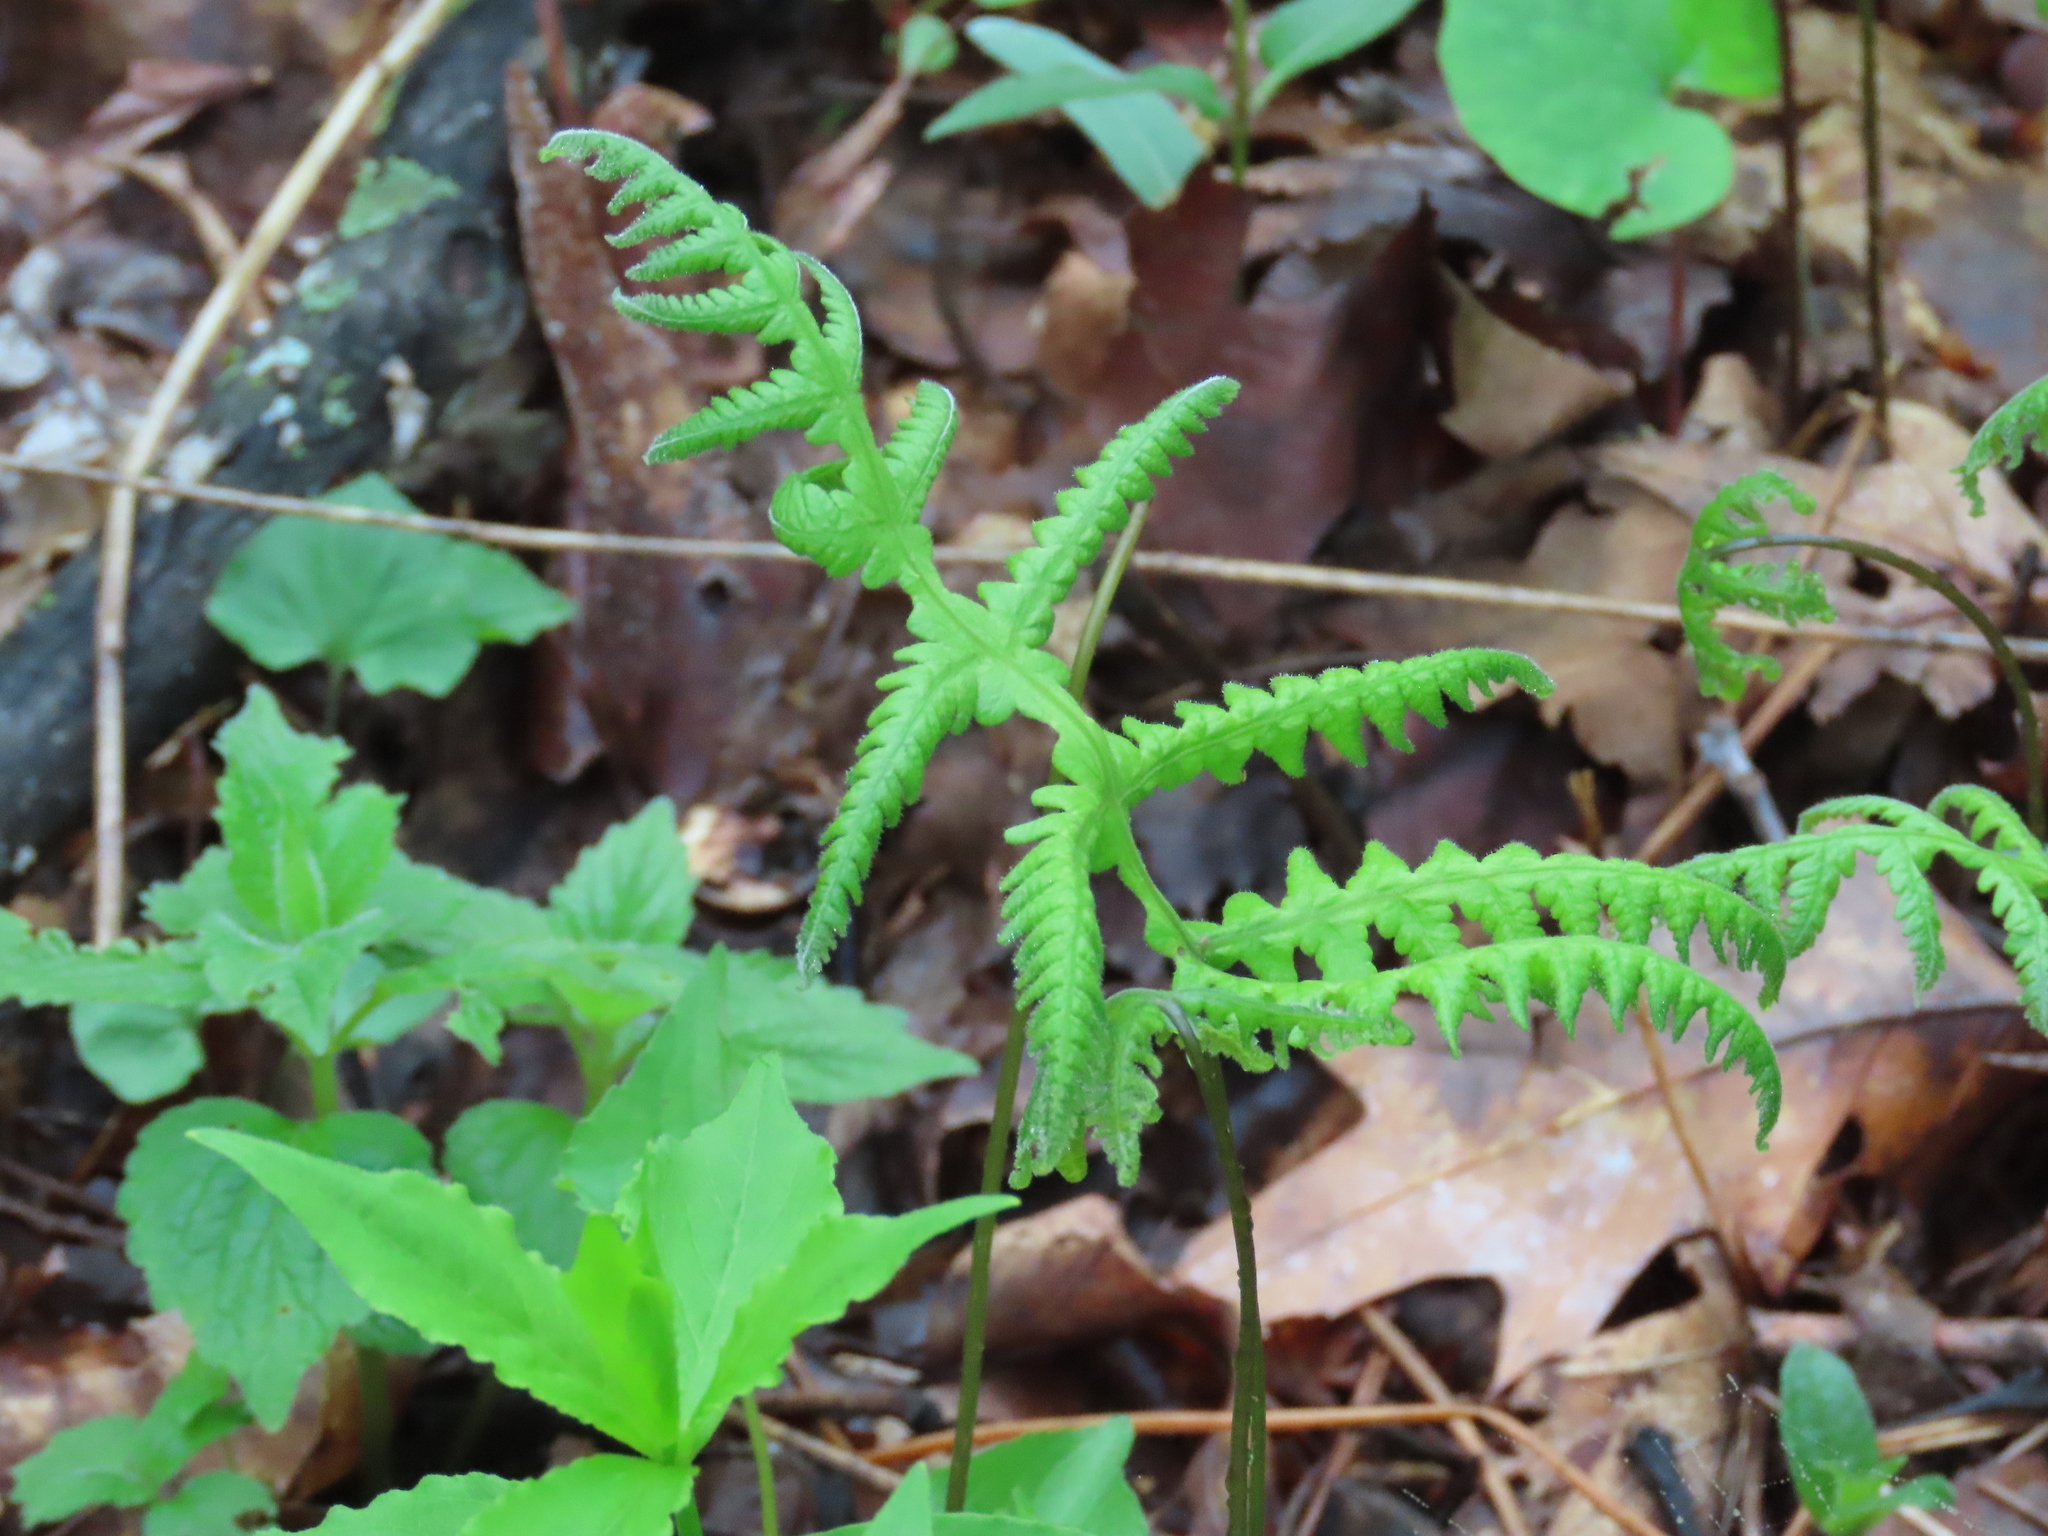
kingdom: Plantae
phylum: Tracheophyta
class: Polypodiopsida
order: Polypodiales
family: Thelypteridaceae
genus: Phegopteris
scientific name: Phegopteris hexagonoptera
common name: Broad beech fern
